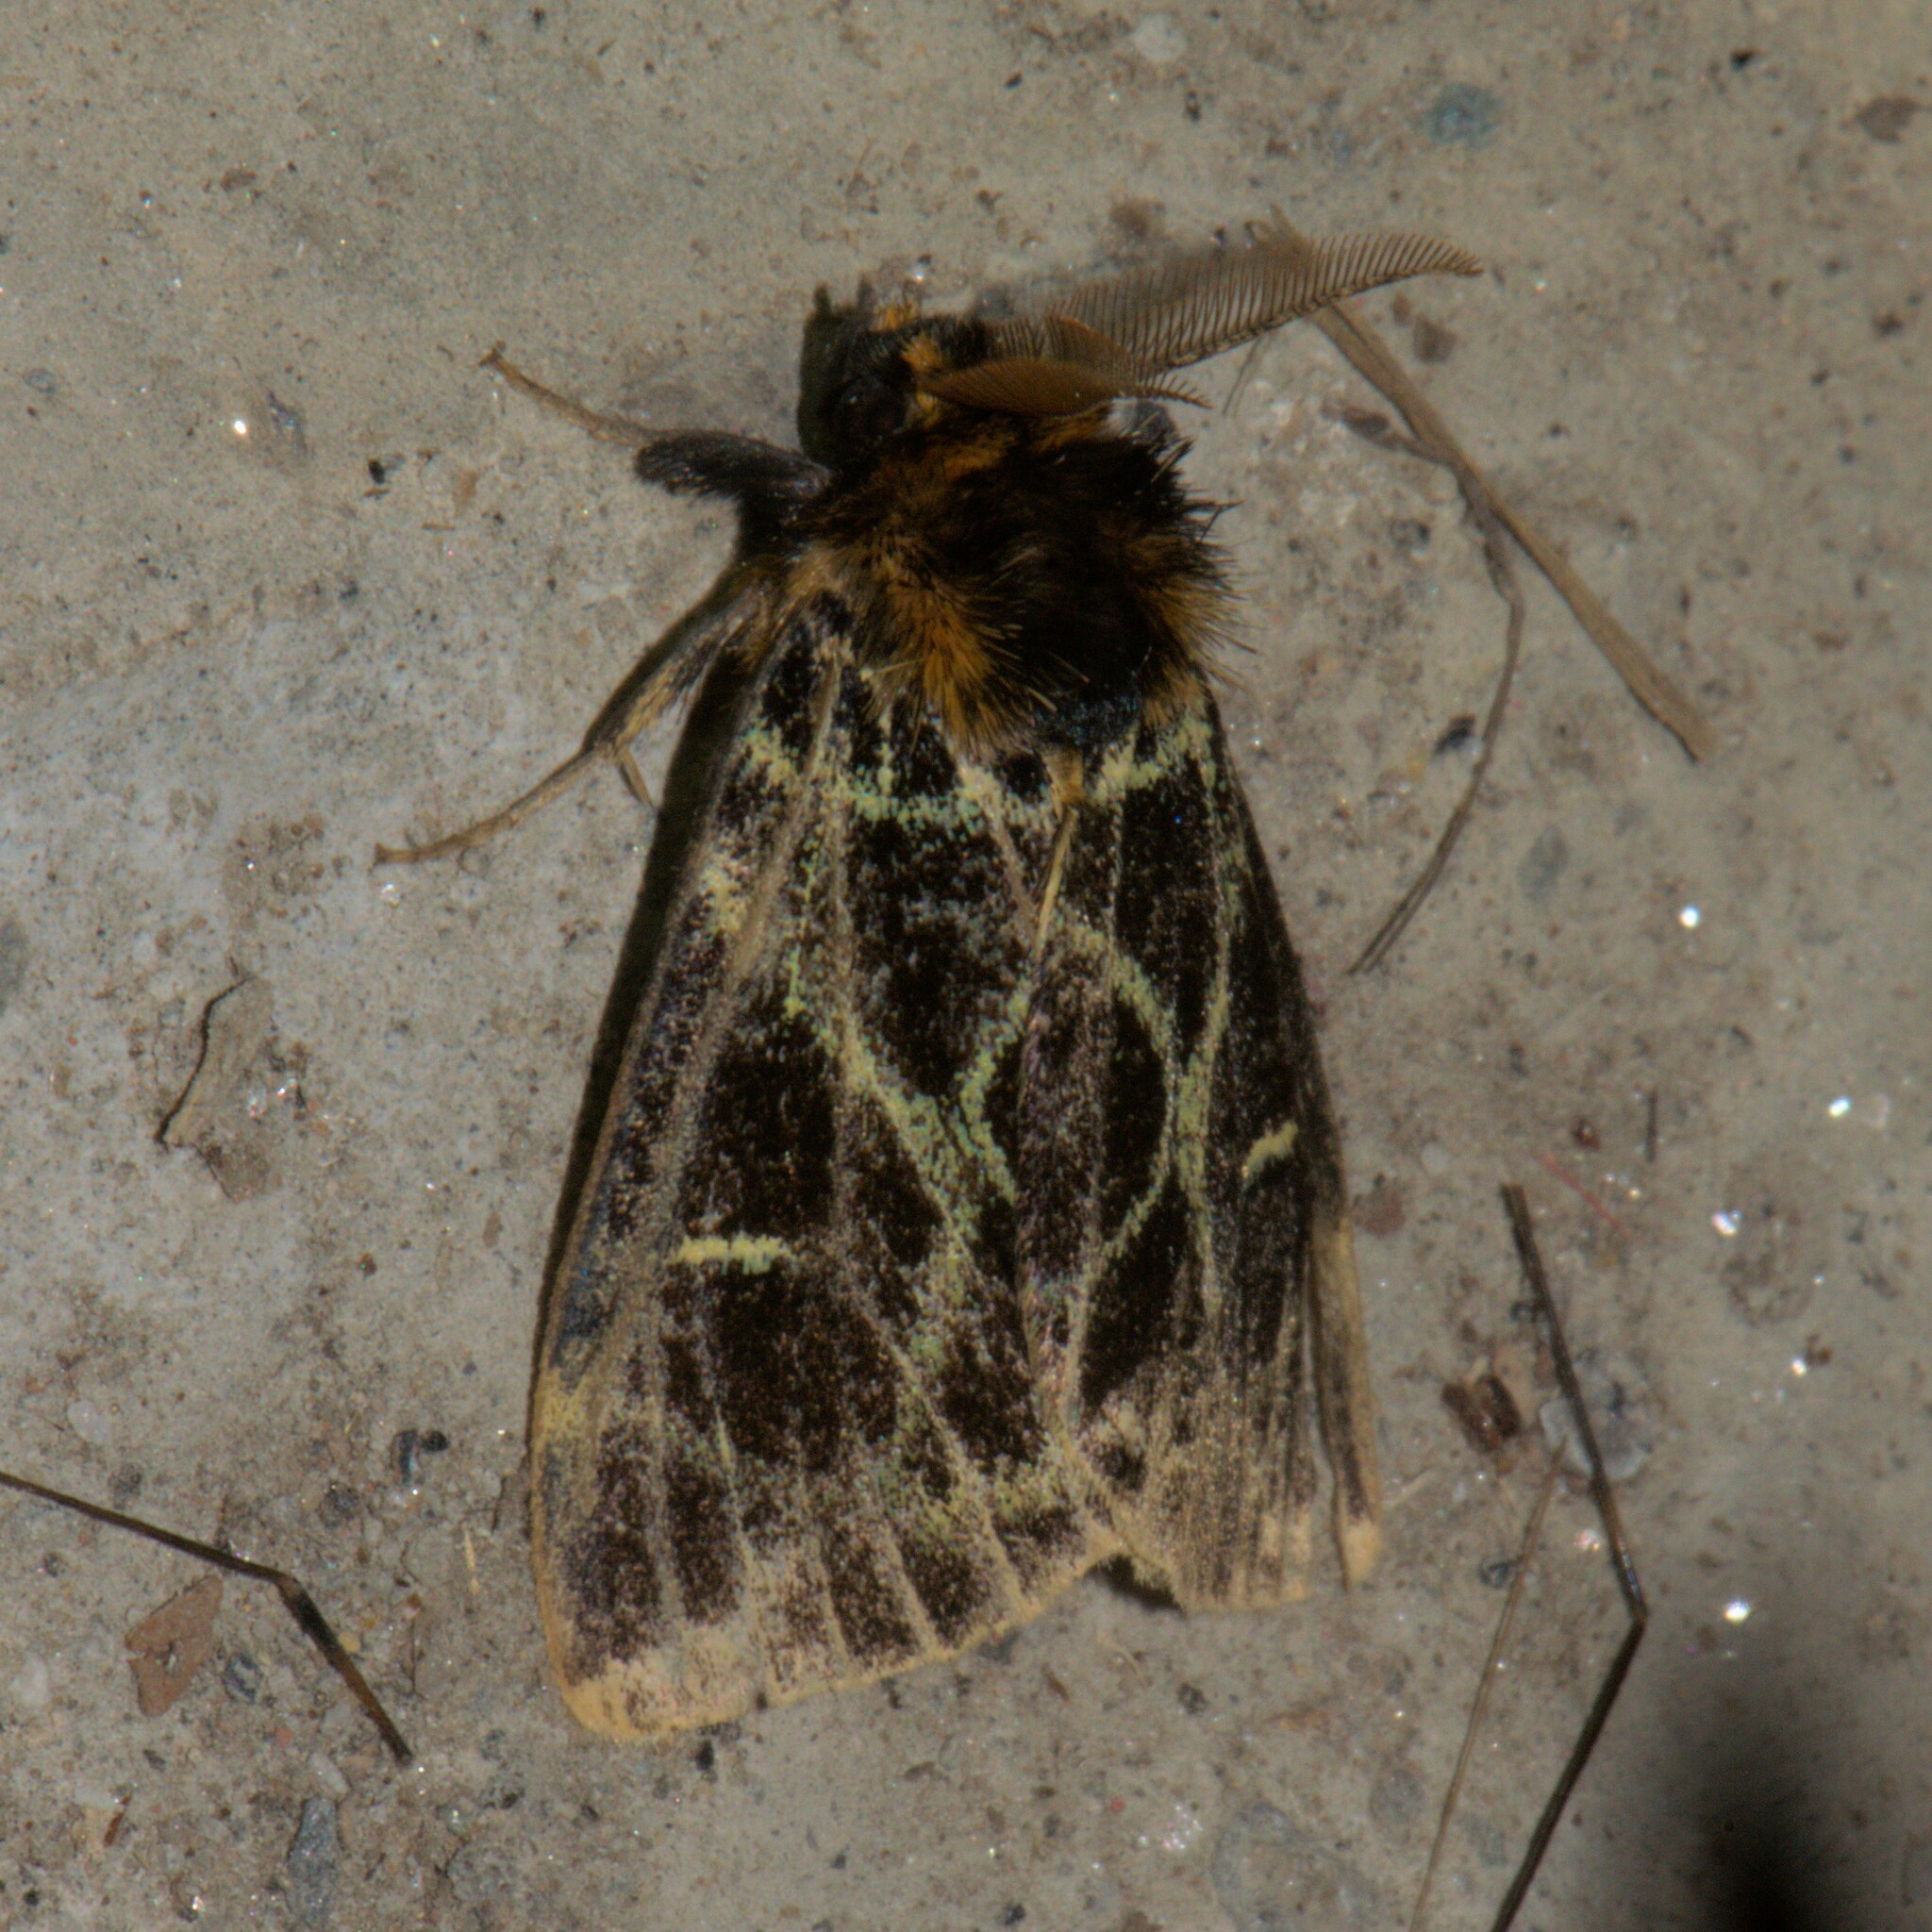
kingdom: Animalia
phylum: Arthropoda
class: Insecta
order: Lepidoptera
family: Erebidae
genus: Pida
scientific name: Pida
